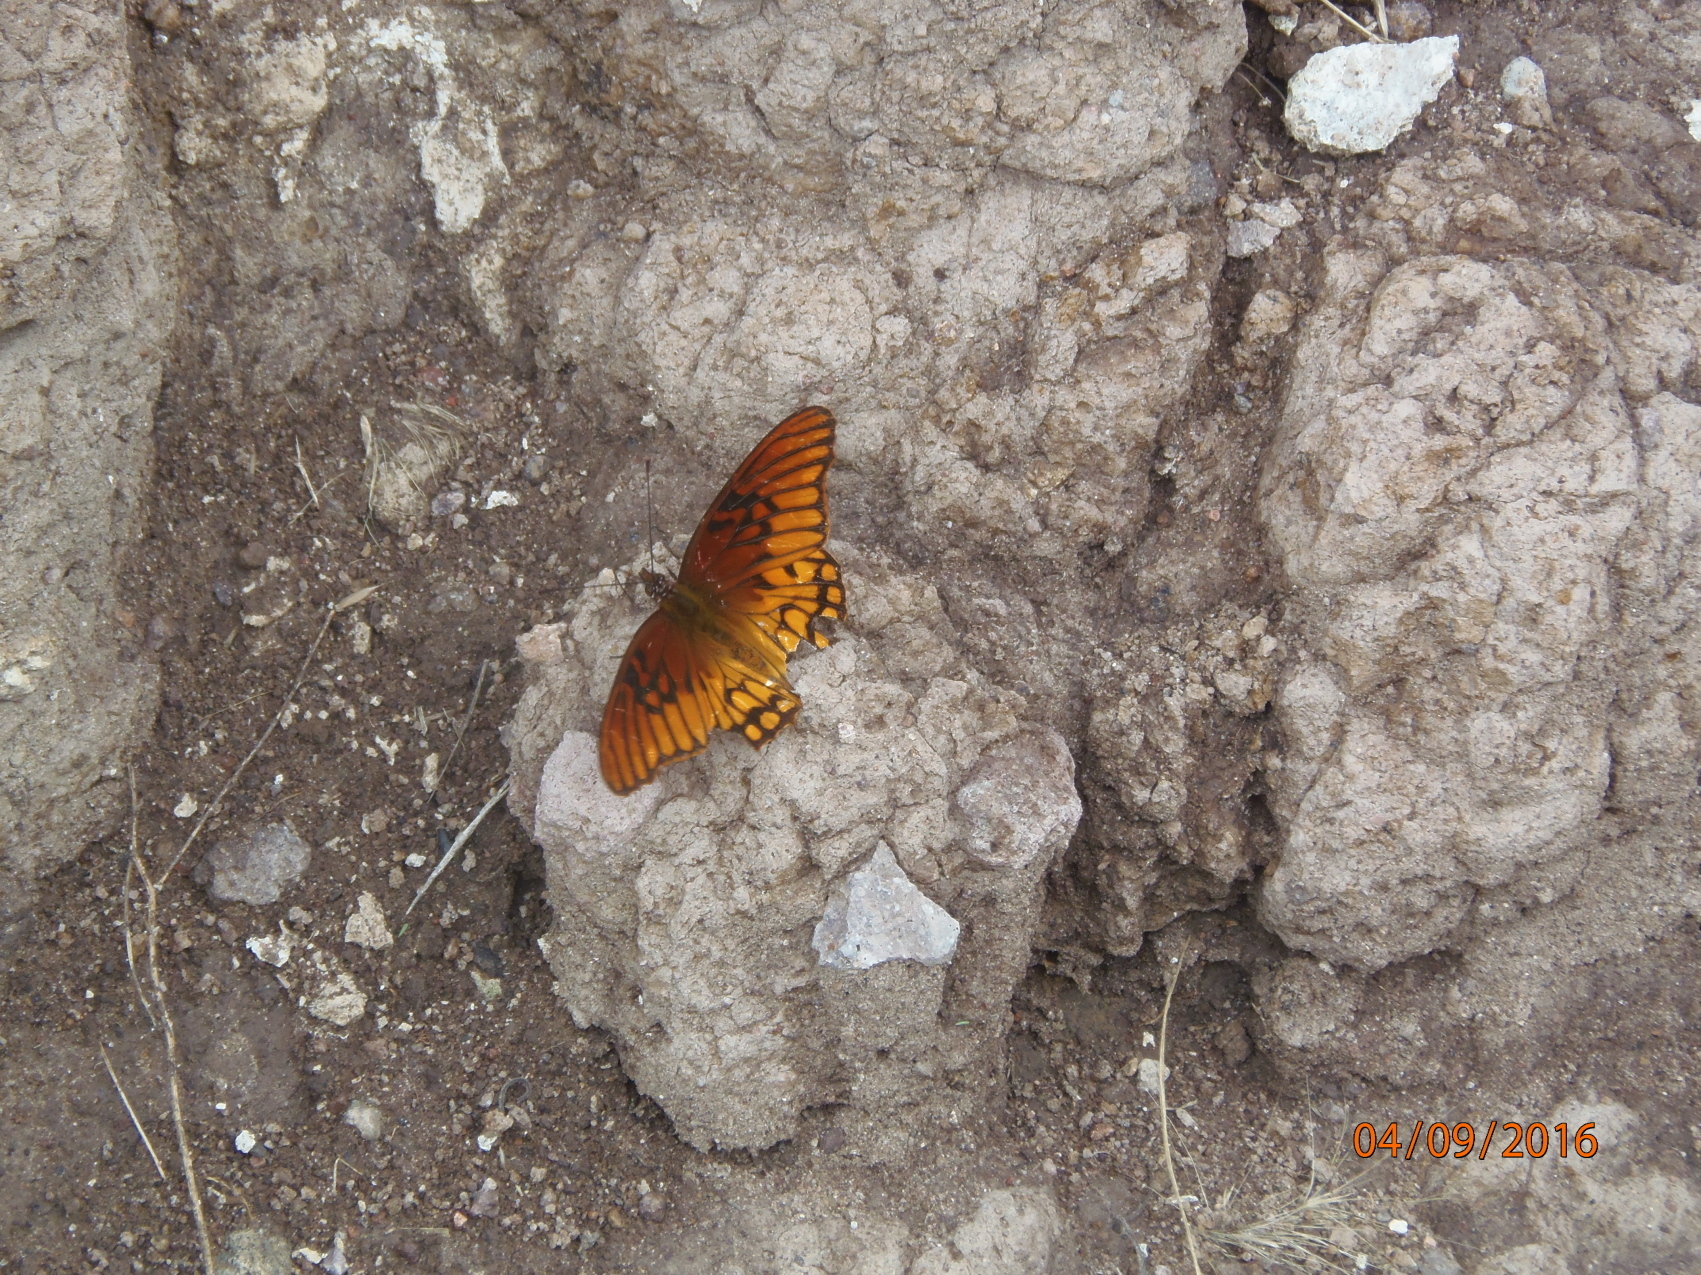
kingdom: Animalia
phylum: Arthropoda
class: Insecta
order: Lepidoptera
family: Nymphalidae
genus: Dione
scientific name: Dione moneta
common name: Mexican silverspot
